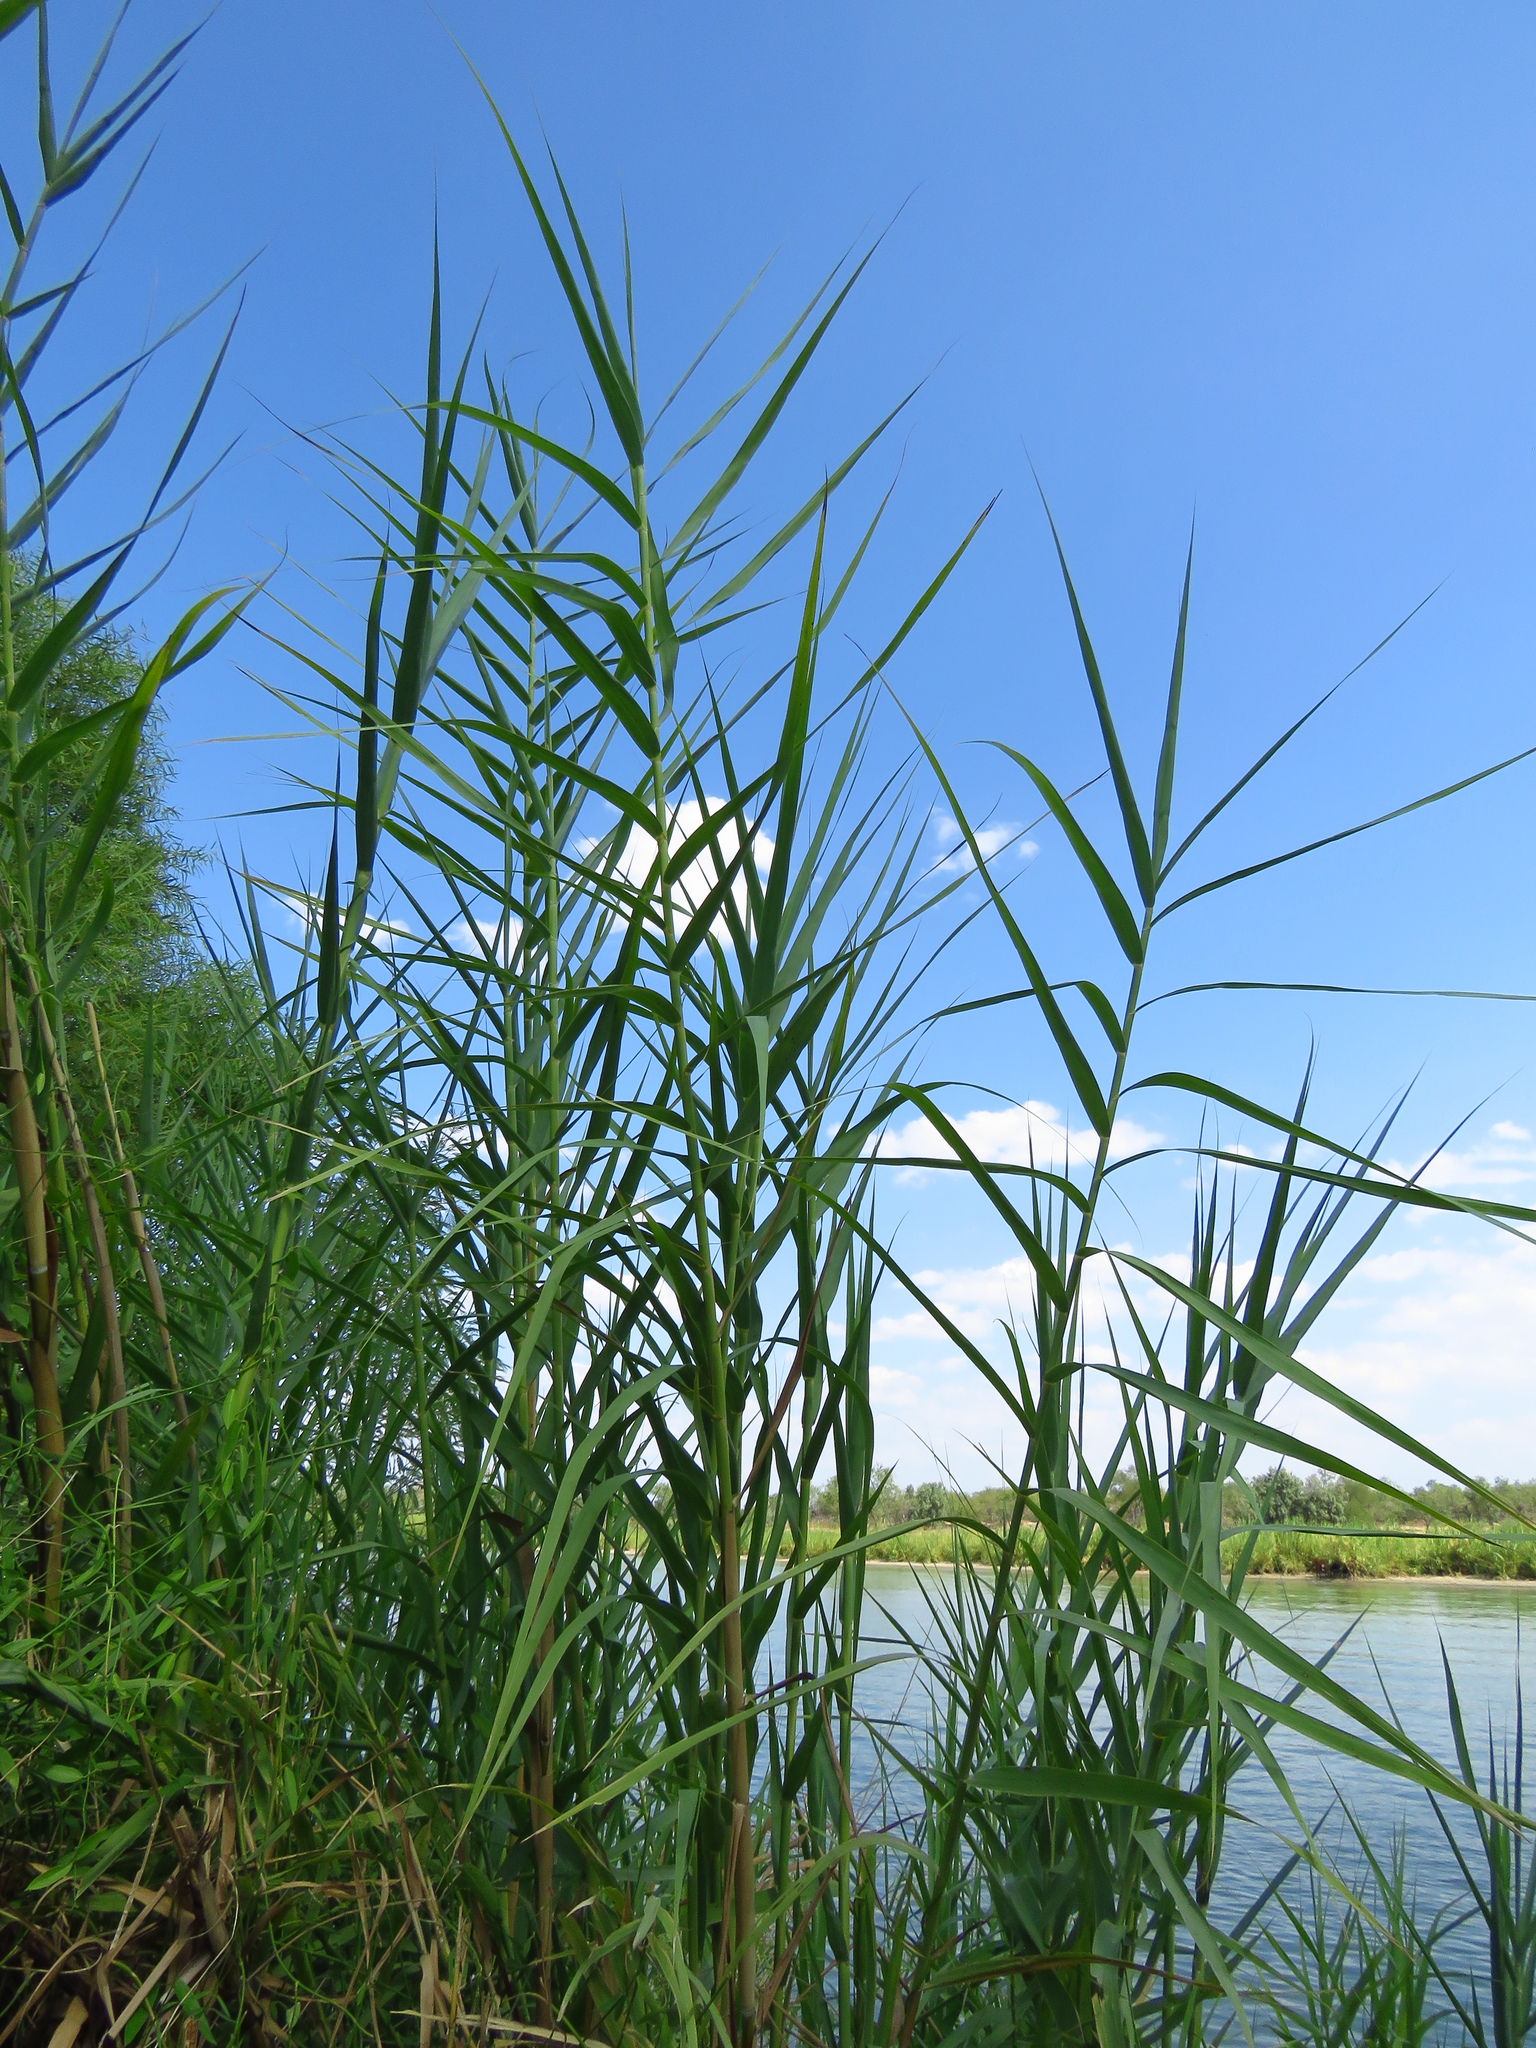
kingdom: Plantae
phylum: Tracheophyta
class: Liliopsida
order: Poales
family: Poaceae
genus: Arundo
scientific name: Arundo donax
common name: Giant reed
